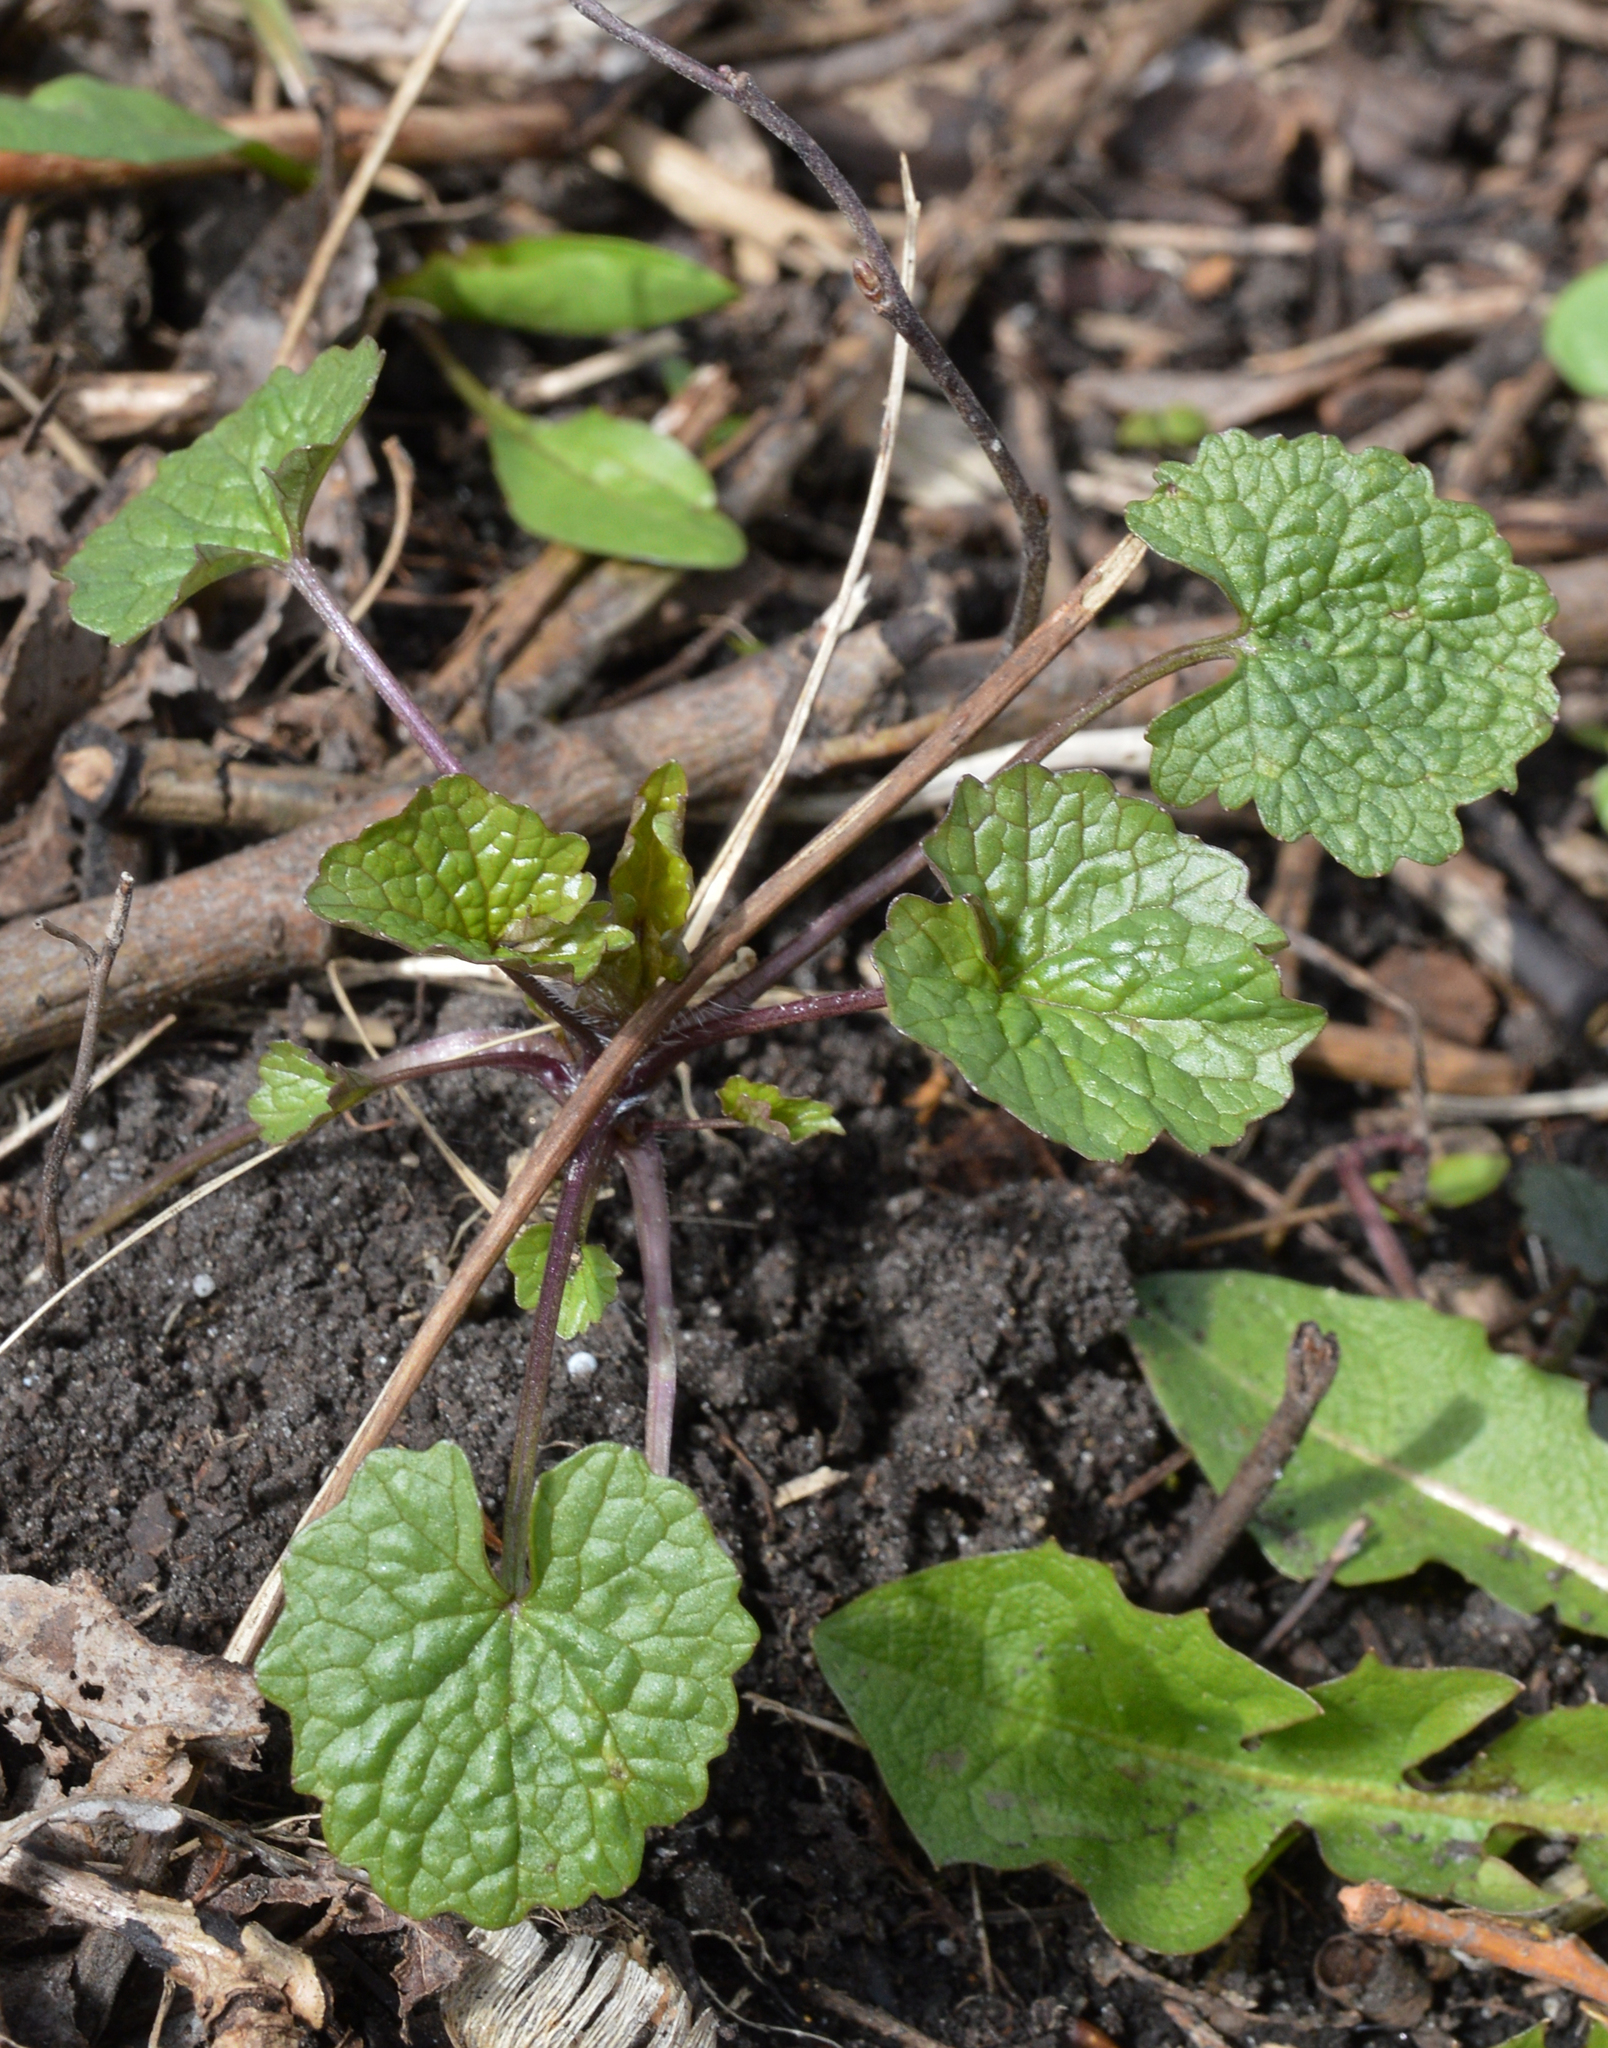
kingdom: Plantae
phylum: Tracheophyta
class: Magnoliopsida
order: Brassicales
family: Brassicaceae
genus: Alliaria
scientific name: Alliaria petiolata
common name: Garlic mustard
